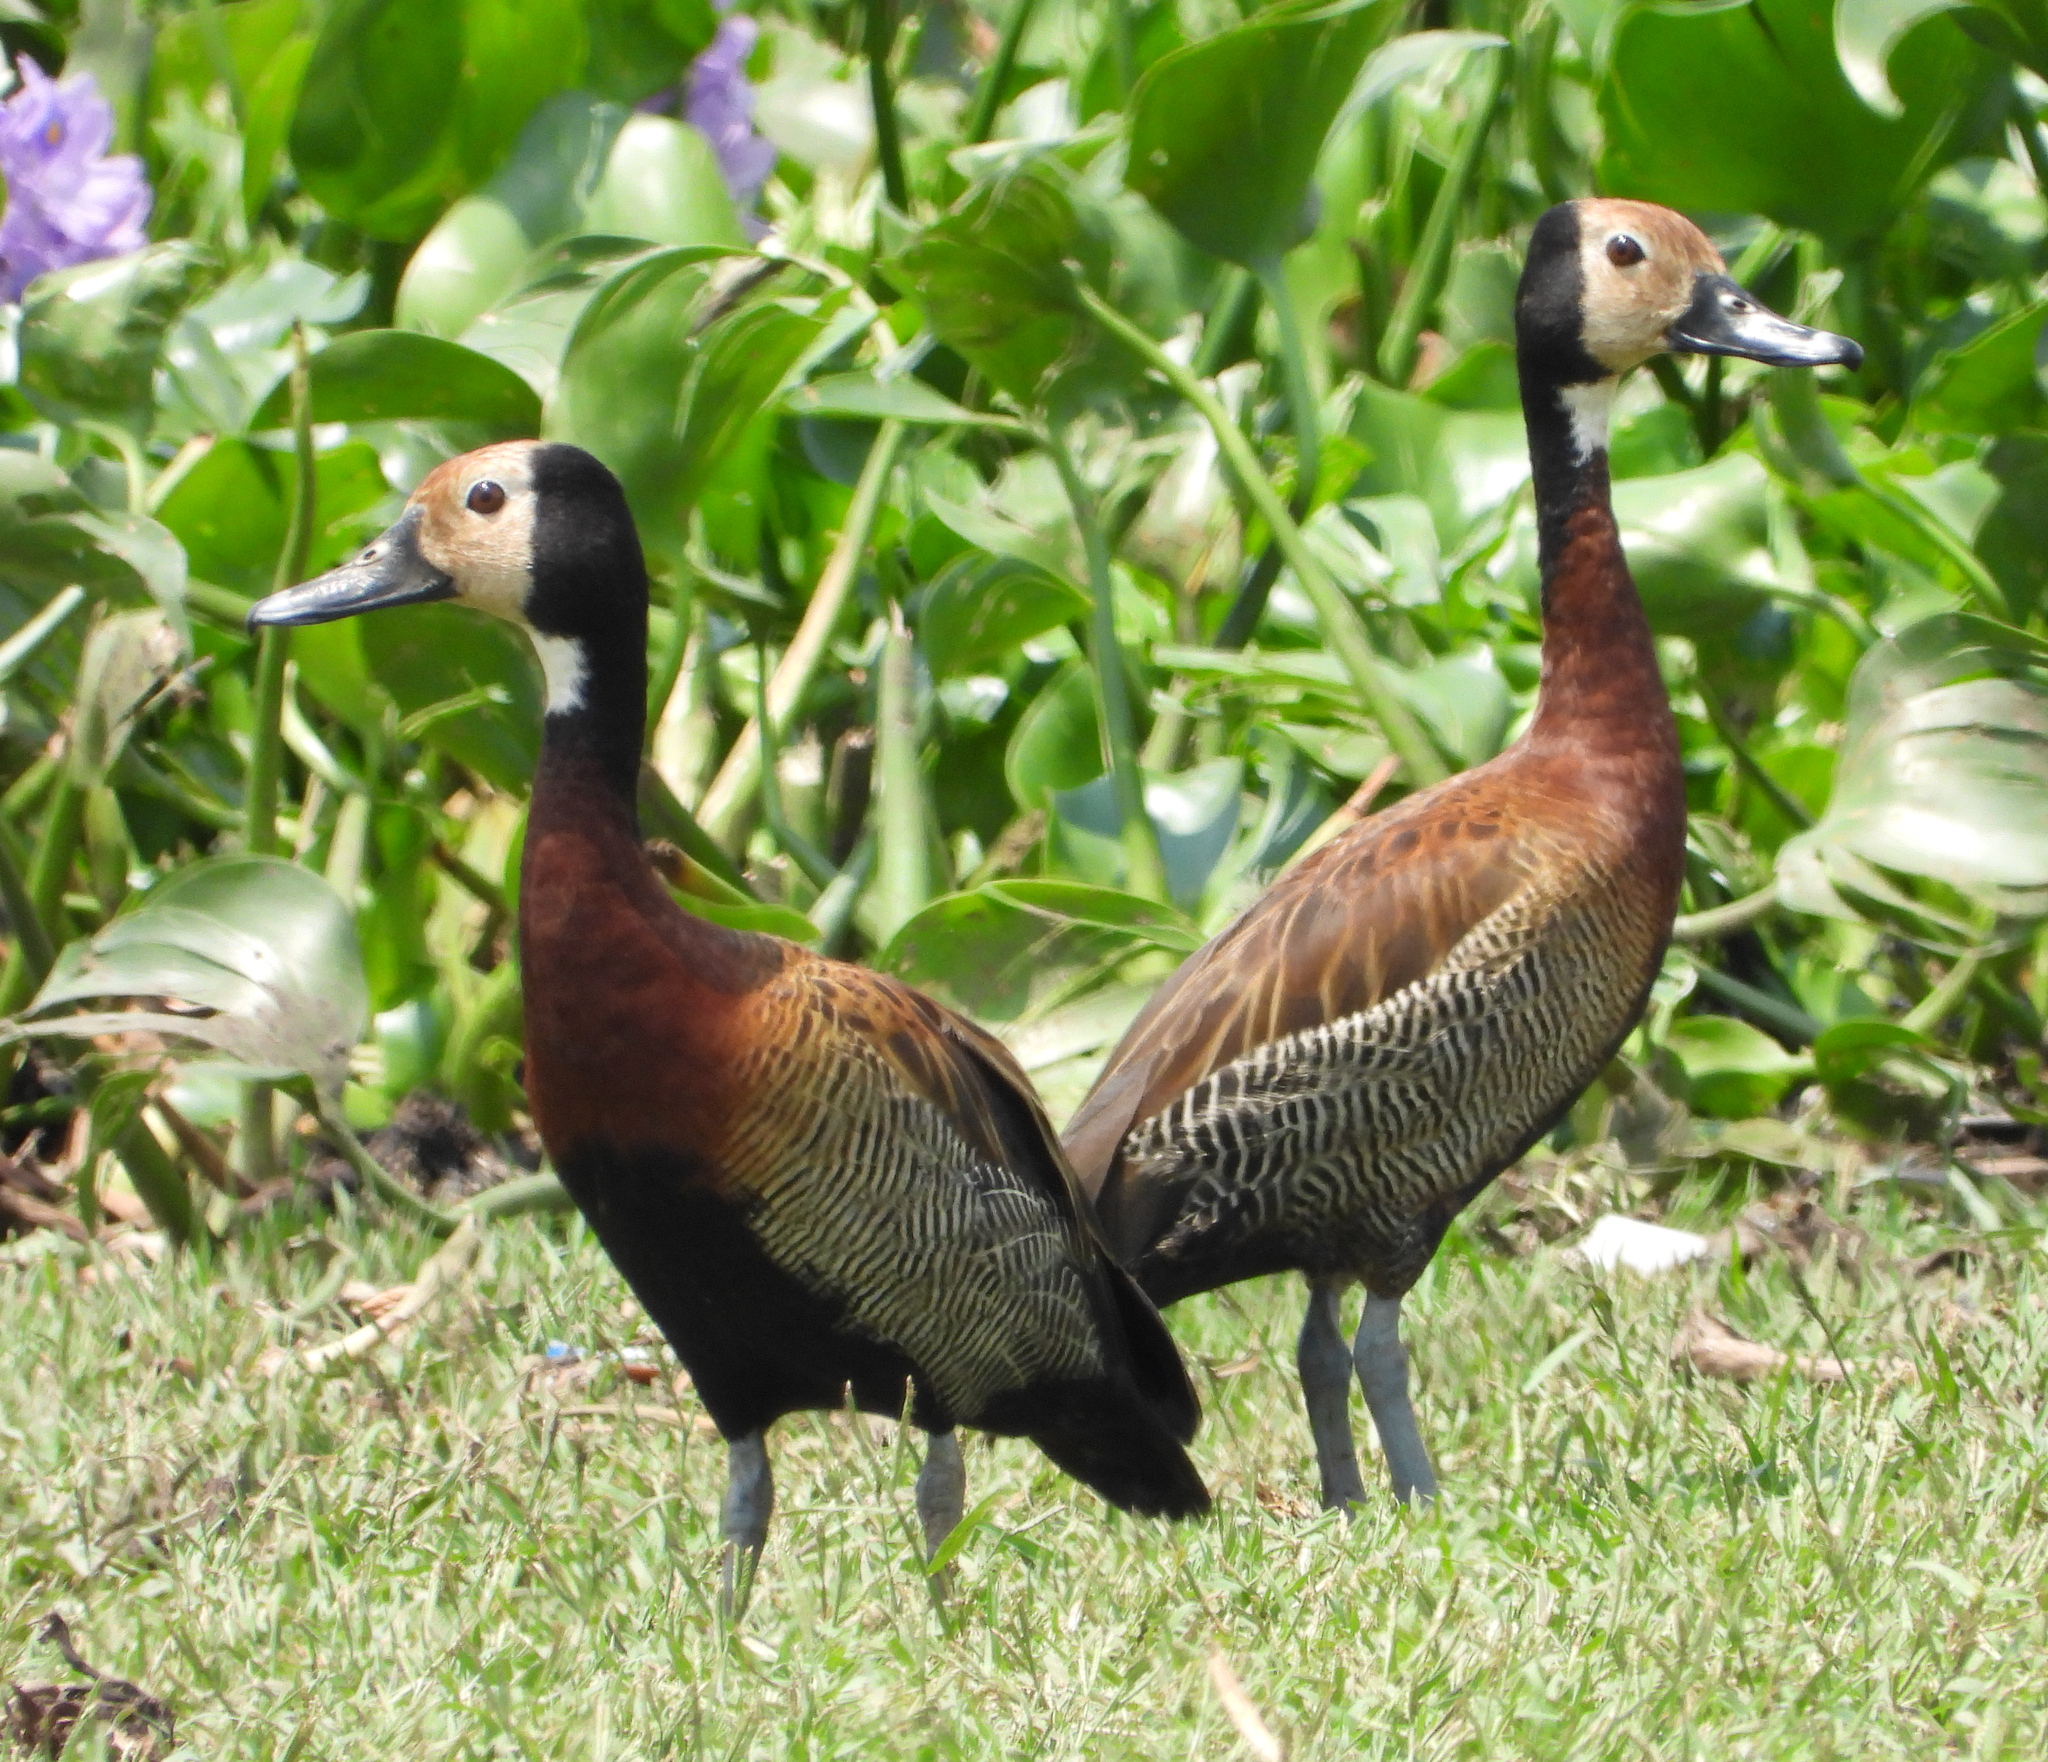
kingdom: Animalia
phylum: Chordata
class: Aves
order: Anseriformes
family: Anatidae
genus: Dendrocygna
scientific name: Dendrocygna viduata
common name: White-faced whistling duck
